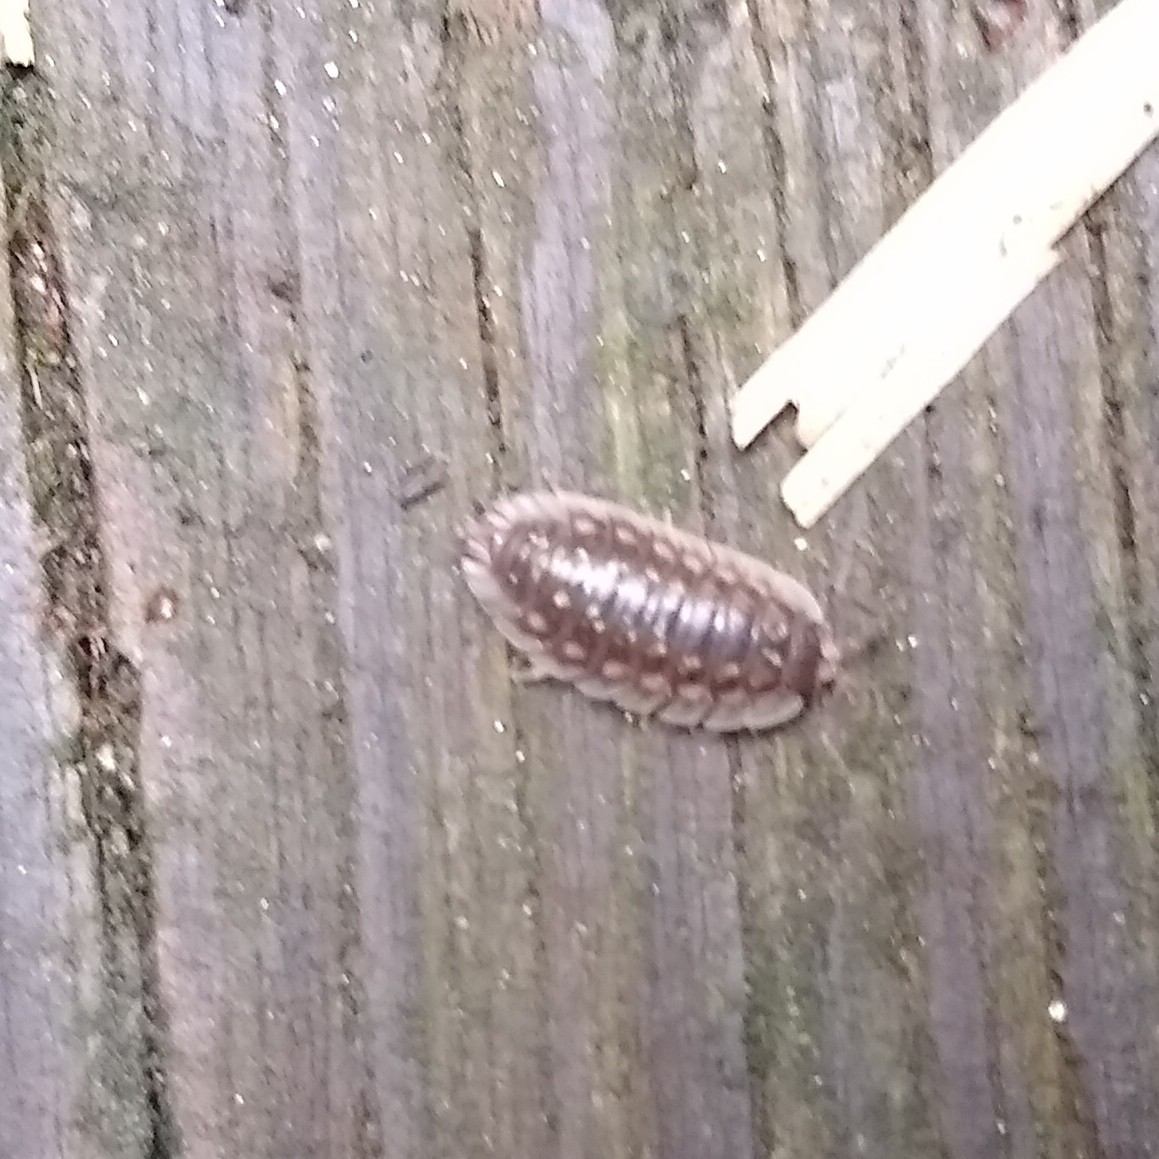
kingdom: Animalia
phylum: Arthropoda
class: Malacostraca
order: Isopoda
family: Oniscidae
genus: Oniscus
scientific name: Oniscus asellus
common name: Common shiny woodlouse
